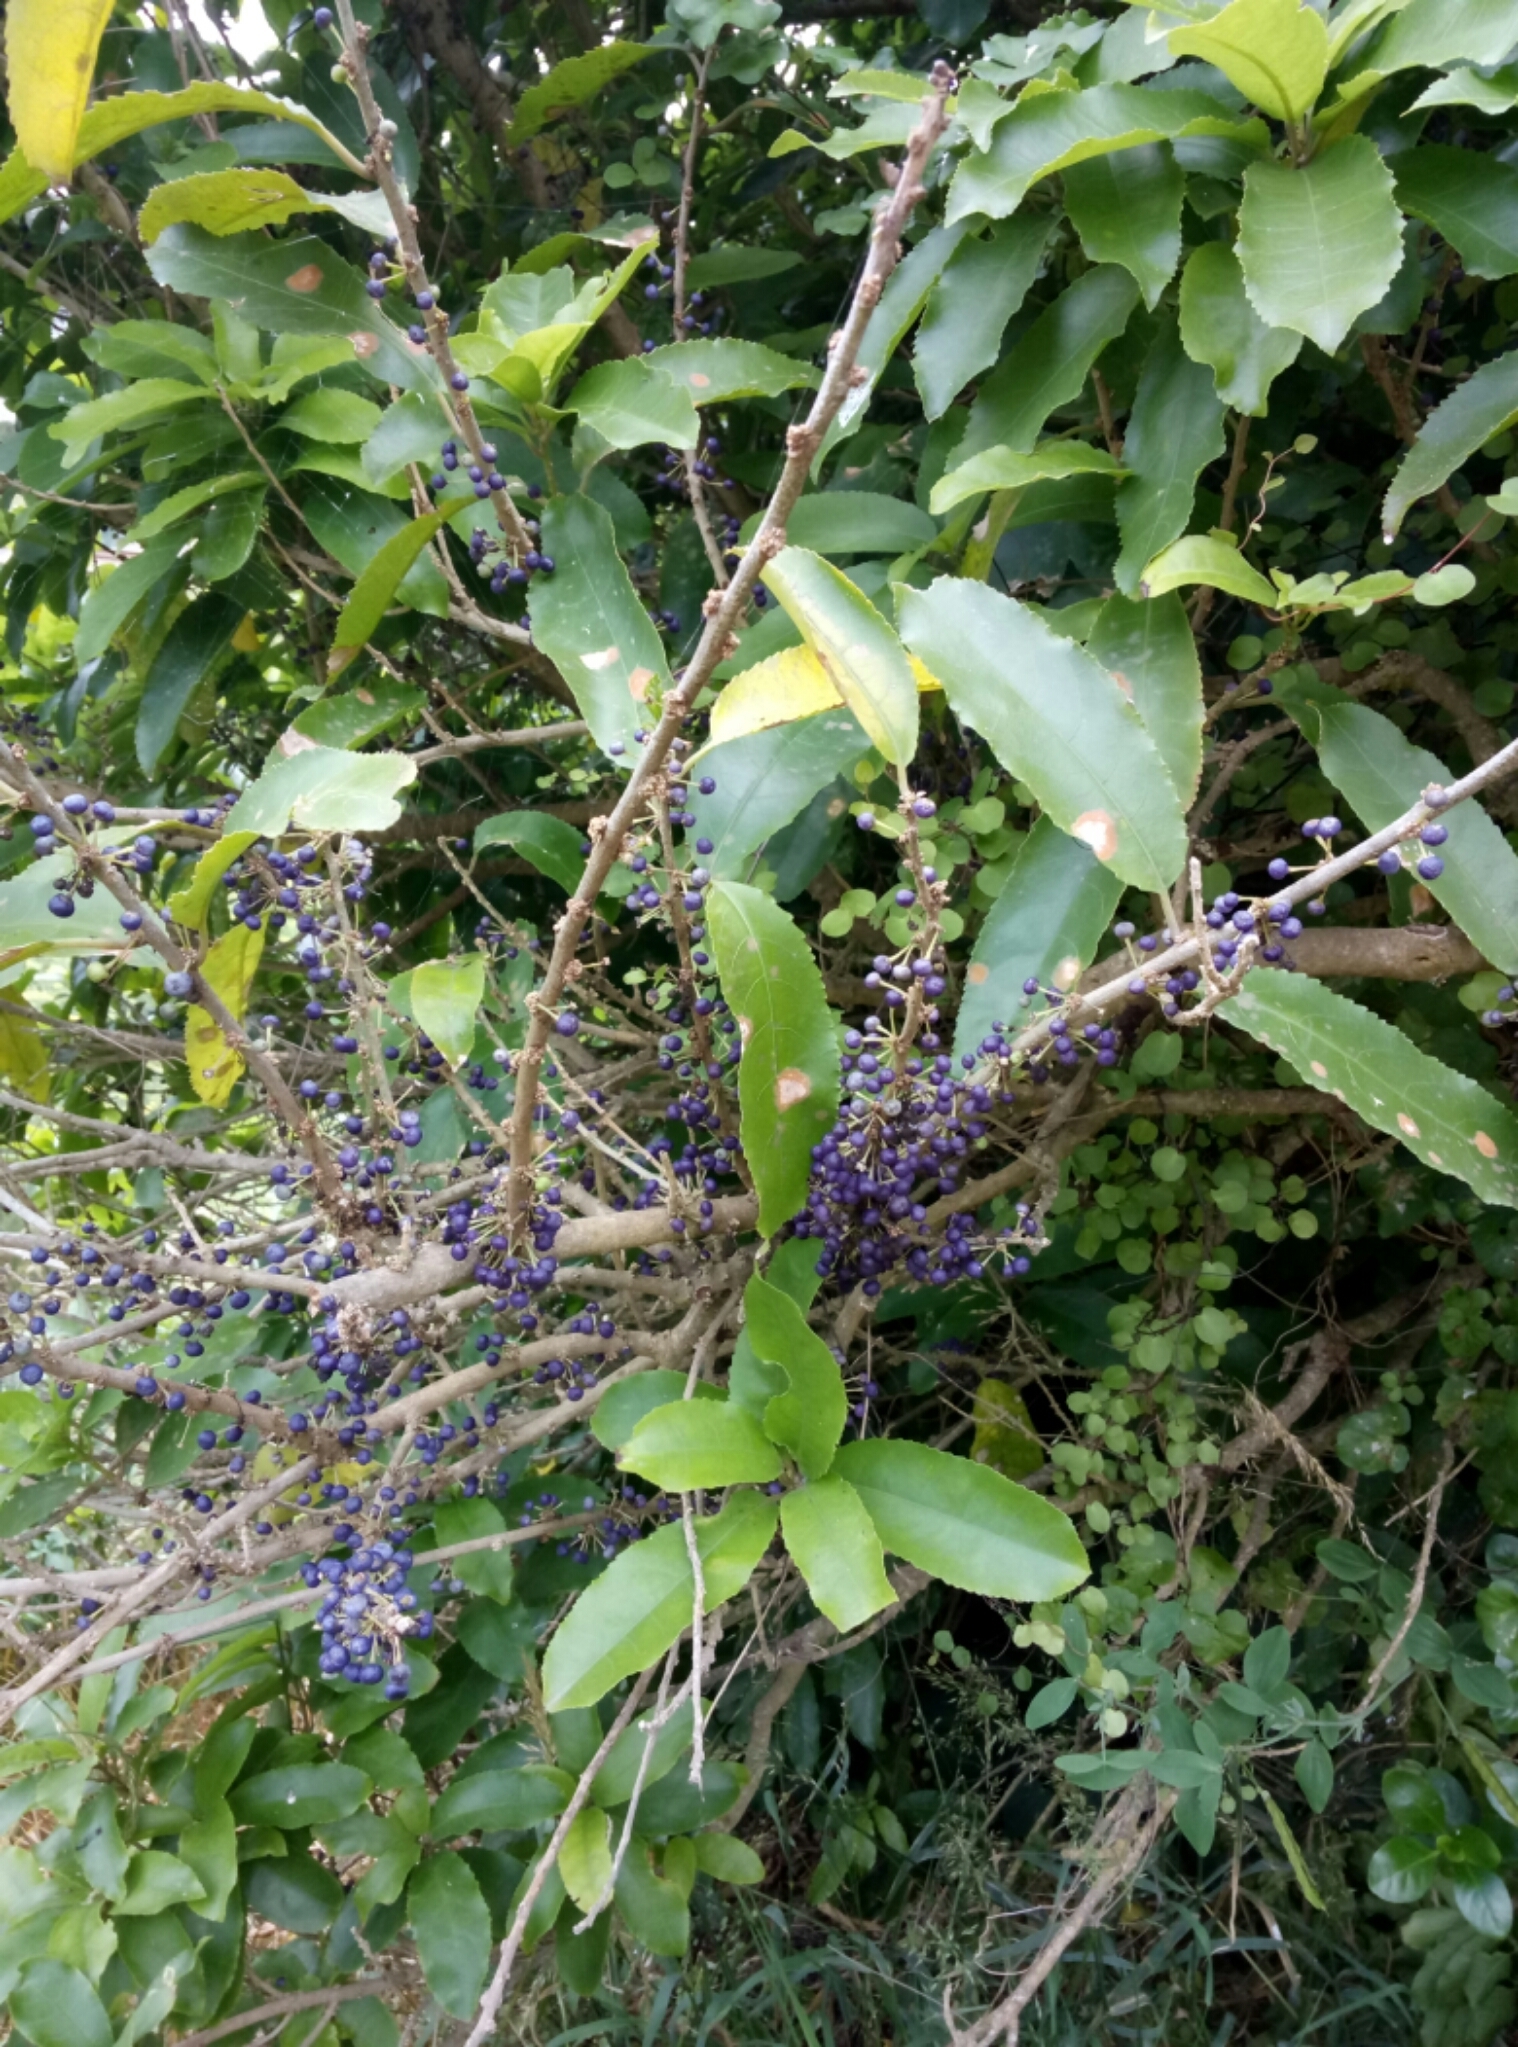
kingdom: Plantae
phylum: Tracheophyta
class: Magnoliopsida
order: Malpighiales
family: Violaceae
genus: Melicytus
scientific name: Melicytus ramiflorus
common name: Mahoe
